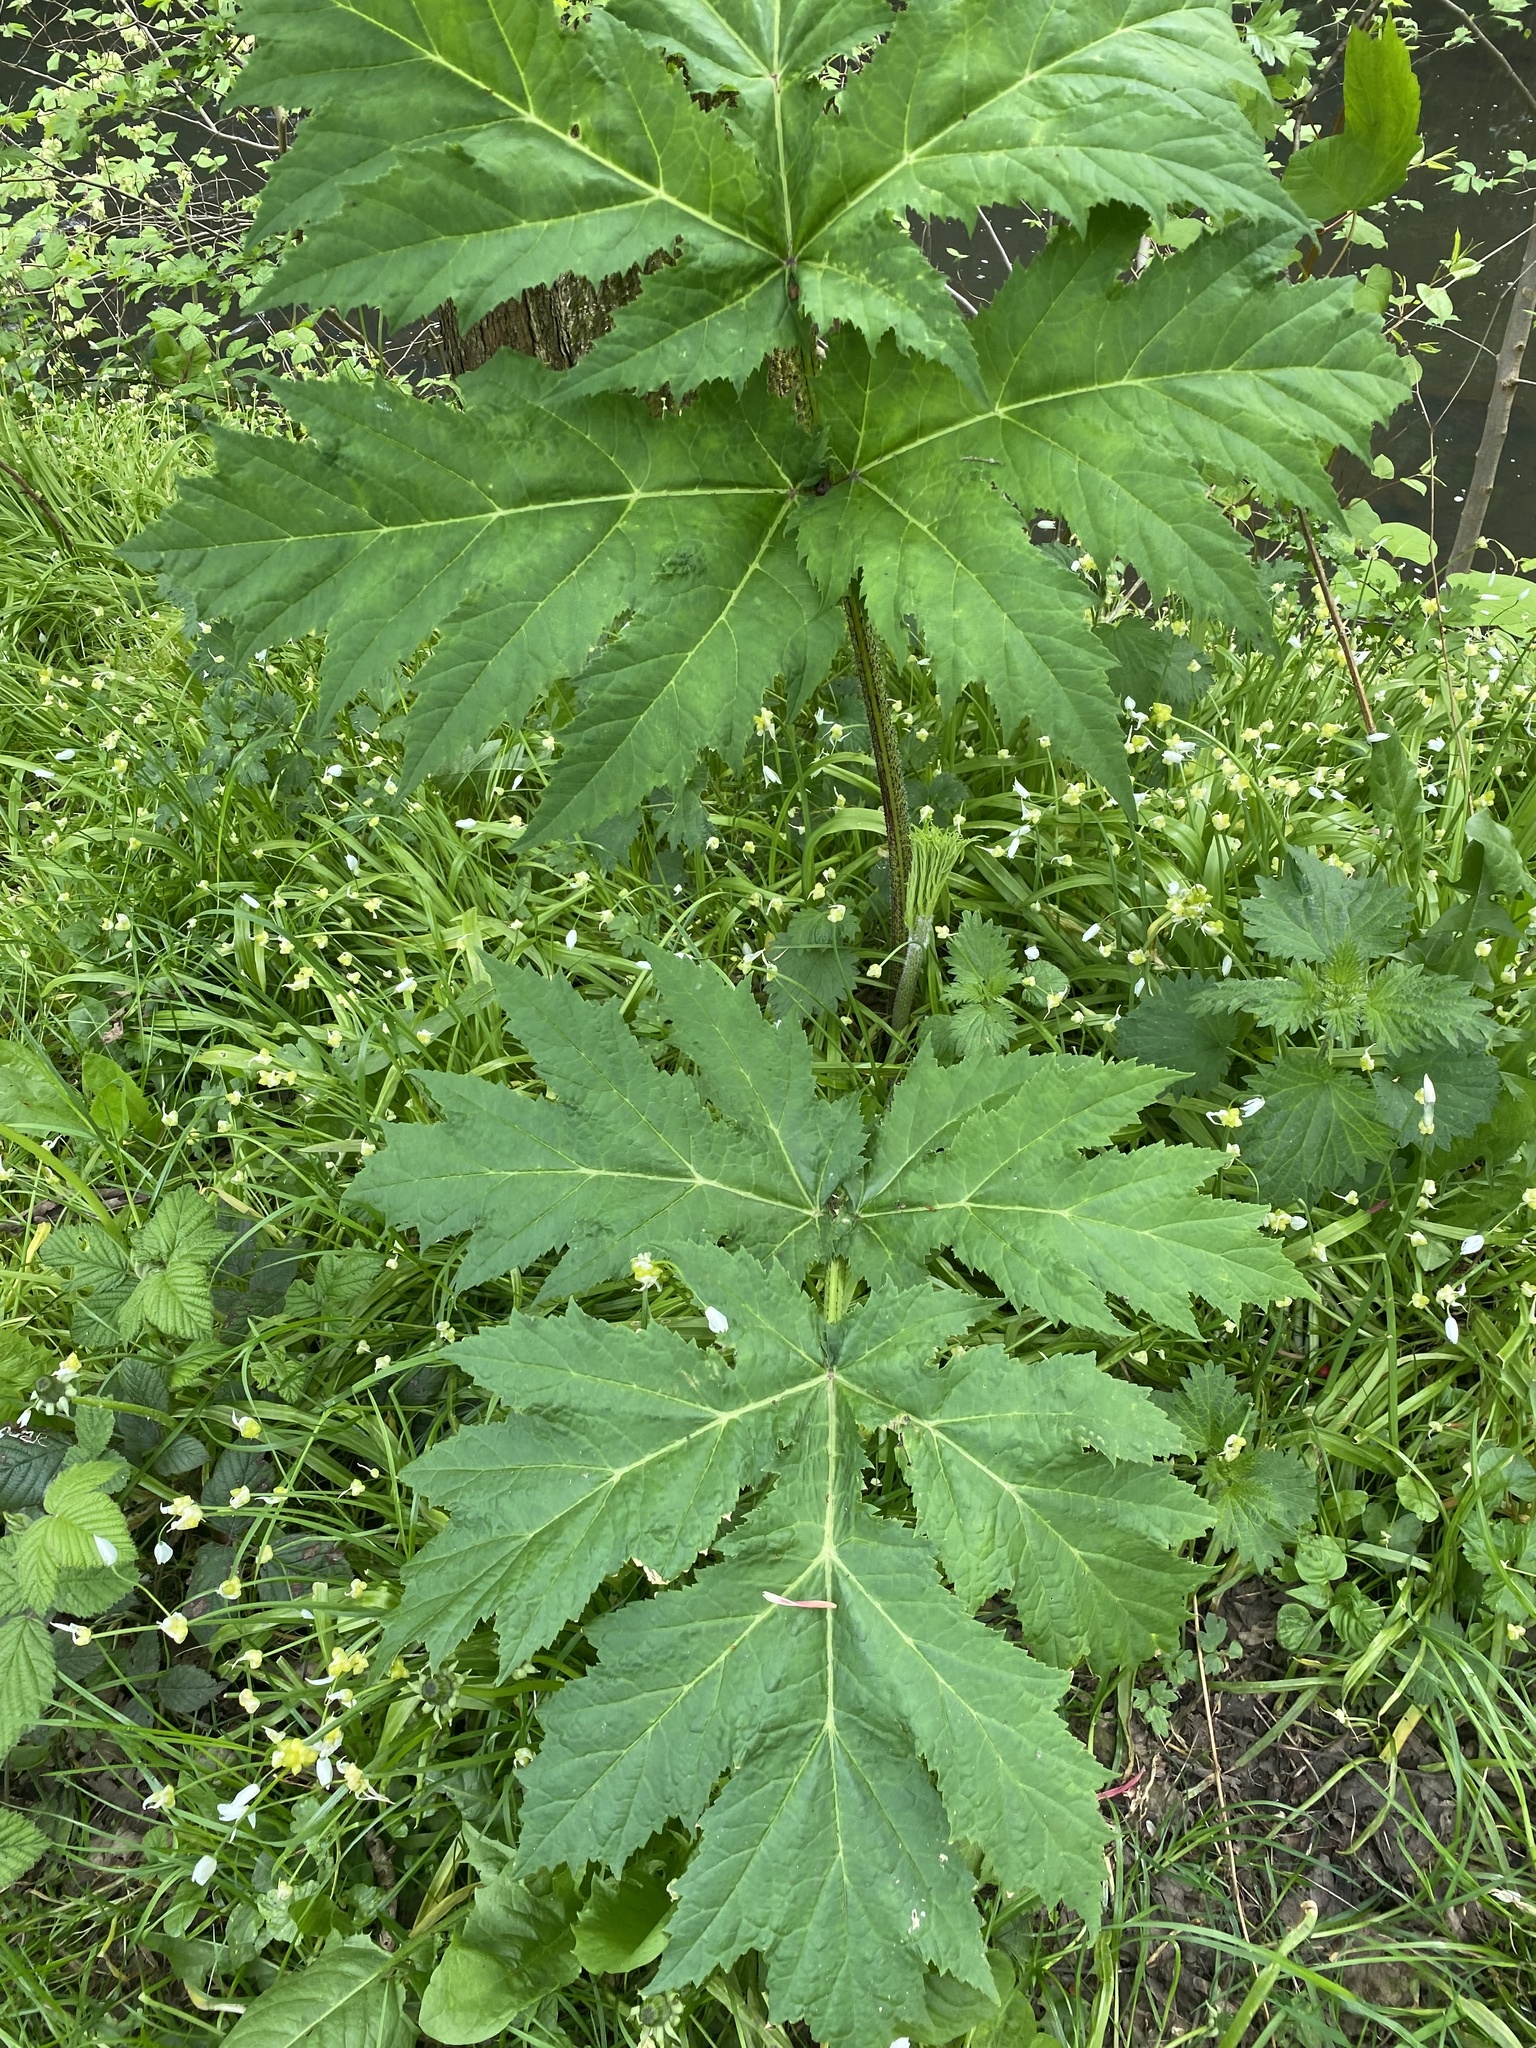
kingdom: Plantae
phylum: Tracheophyta
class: Magnoliopsida
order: Apiales
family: Apiaceae
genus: Heracleum
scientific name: Heracleum mantegazzianum
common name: Giant hogweed
